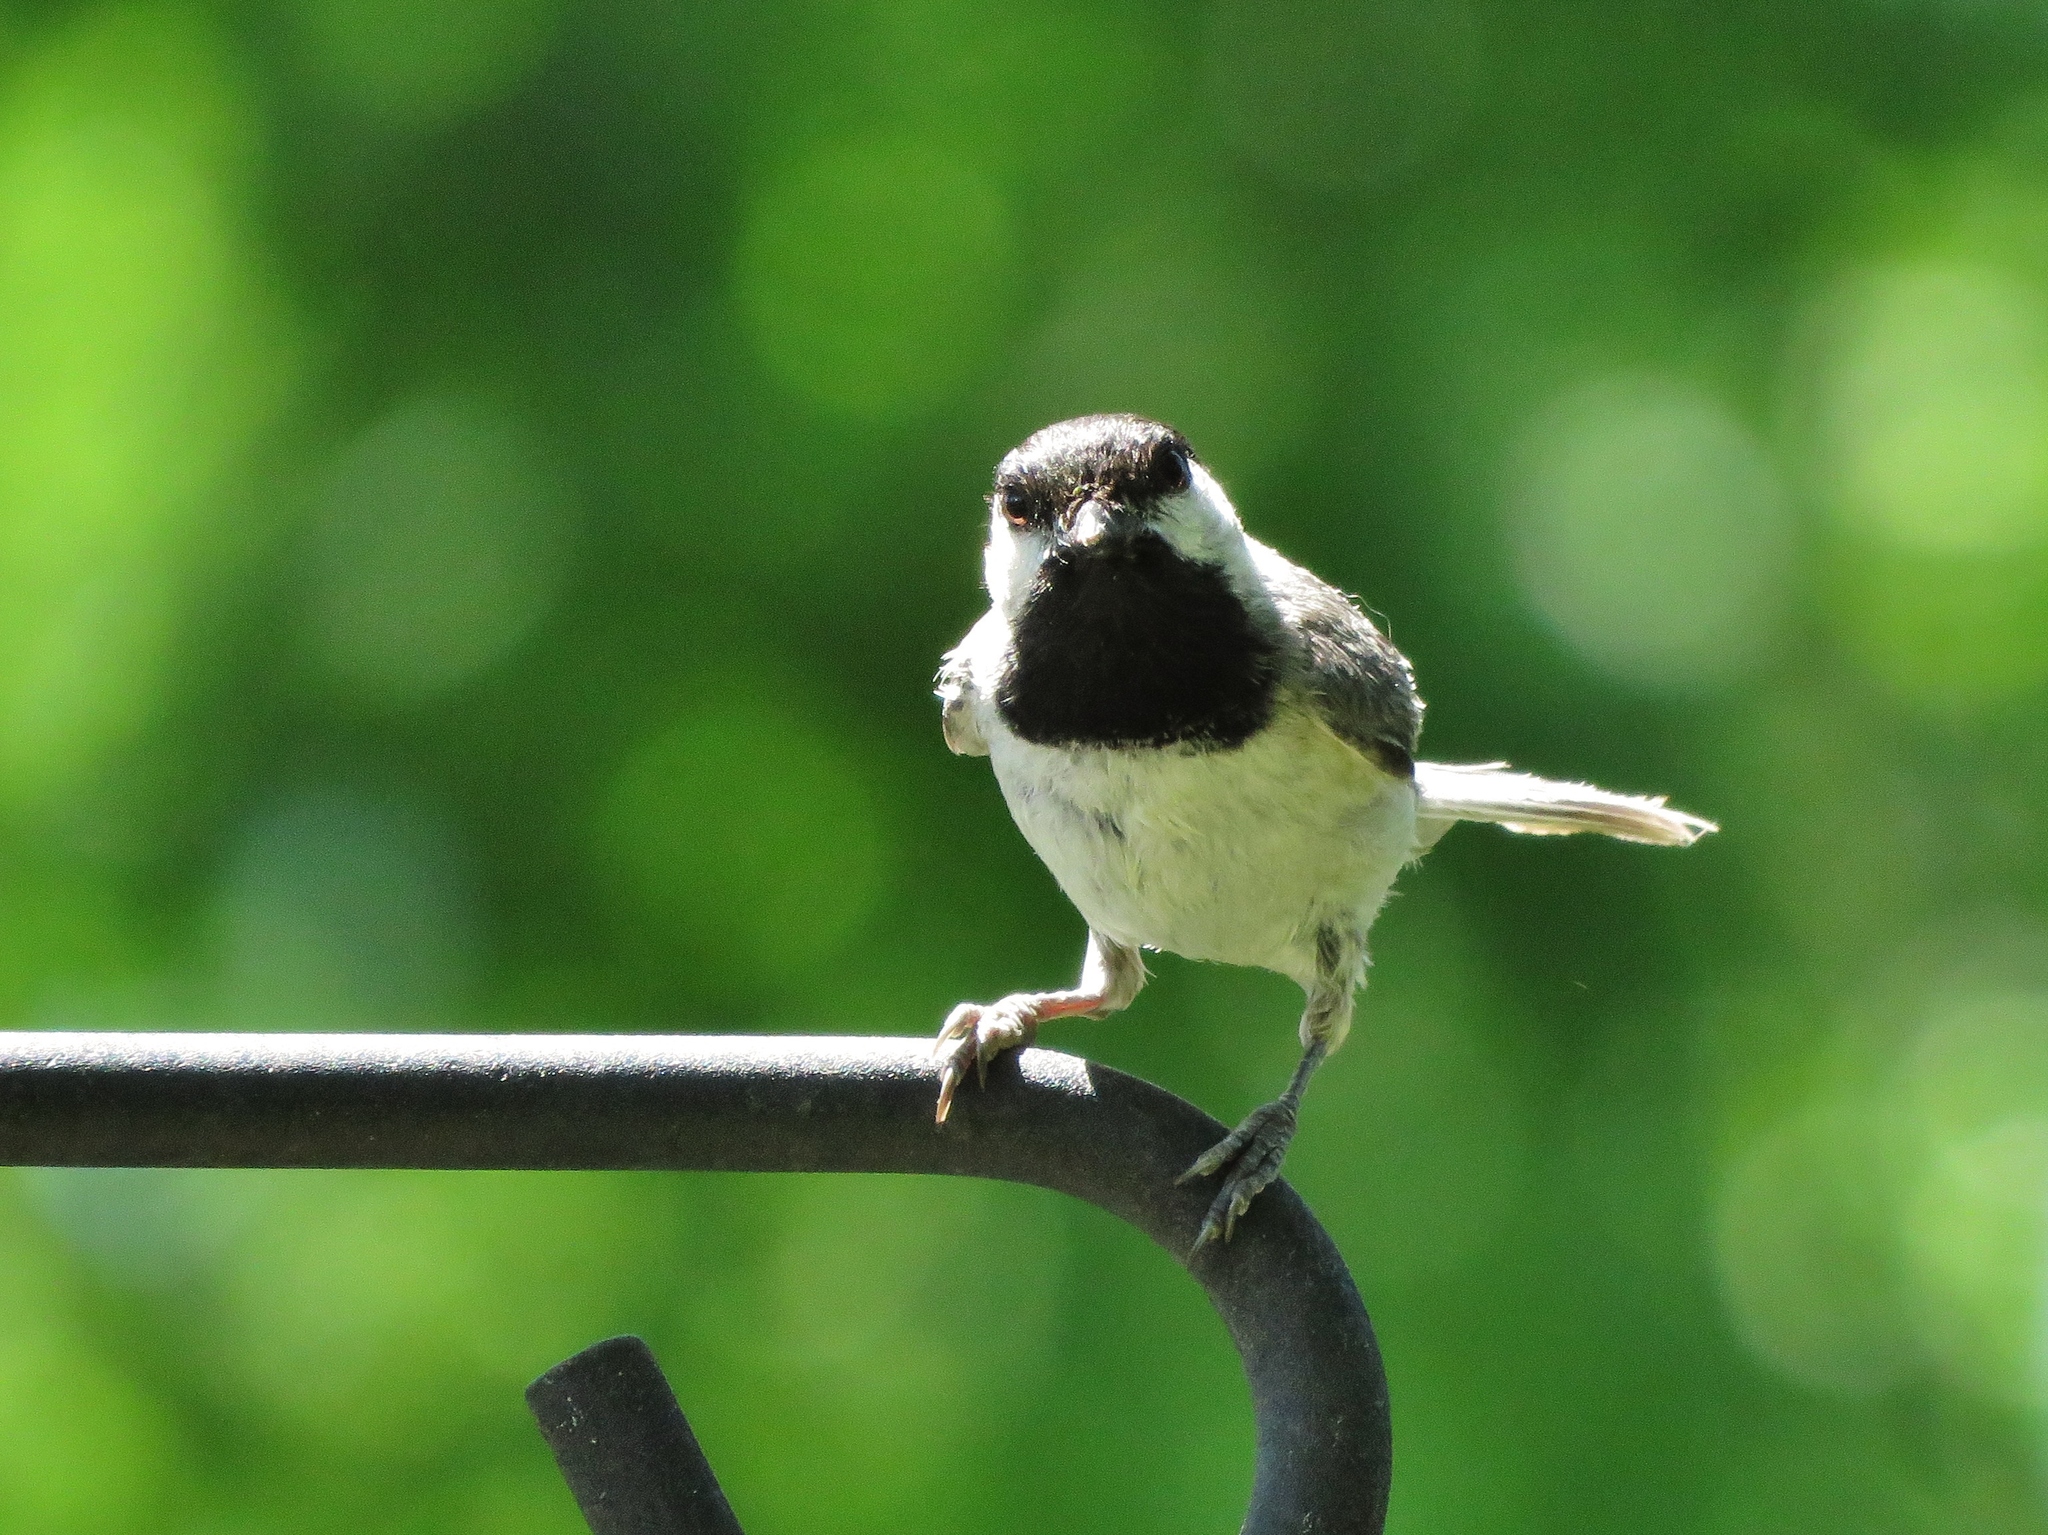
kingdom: Animalia
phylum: Chordata
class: Aves
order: Passeriformes
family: Paridae
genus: Poecile
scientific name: Poecile carolinensis
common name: Carolina chickadee
